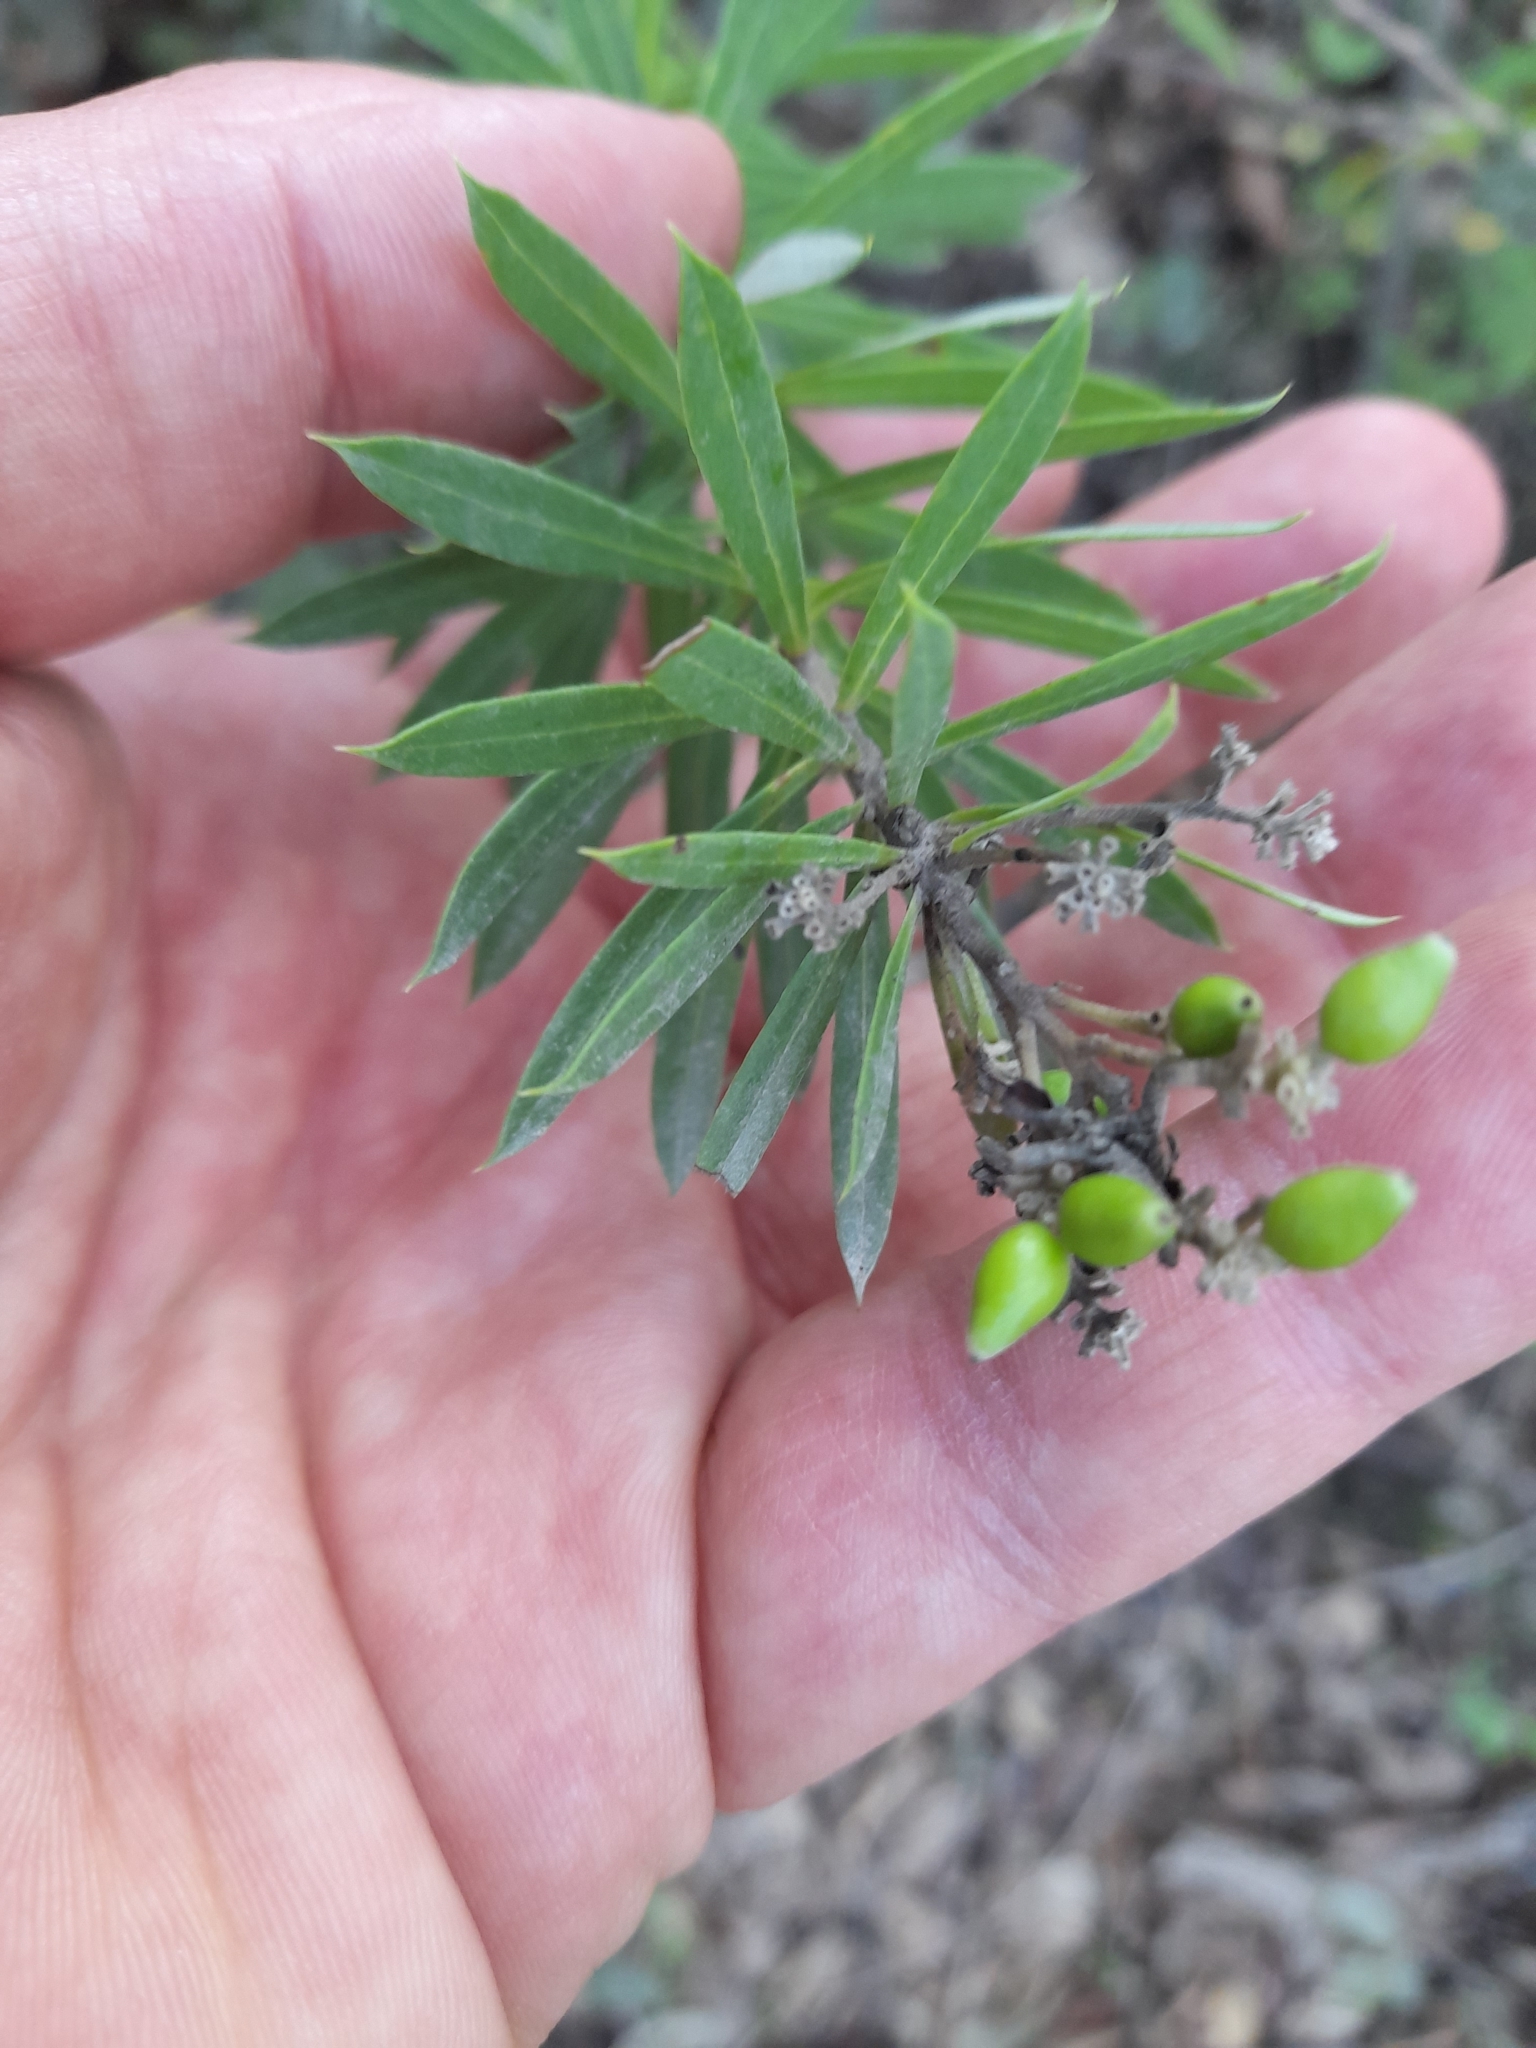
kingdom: Plantae
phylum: Tracheophyta
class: Magnoliopsida
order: Malvales
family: Thymelaeaceae
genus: Daphne
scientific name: Daphne gnidium
